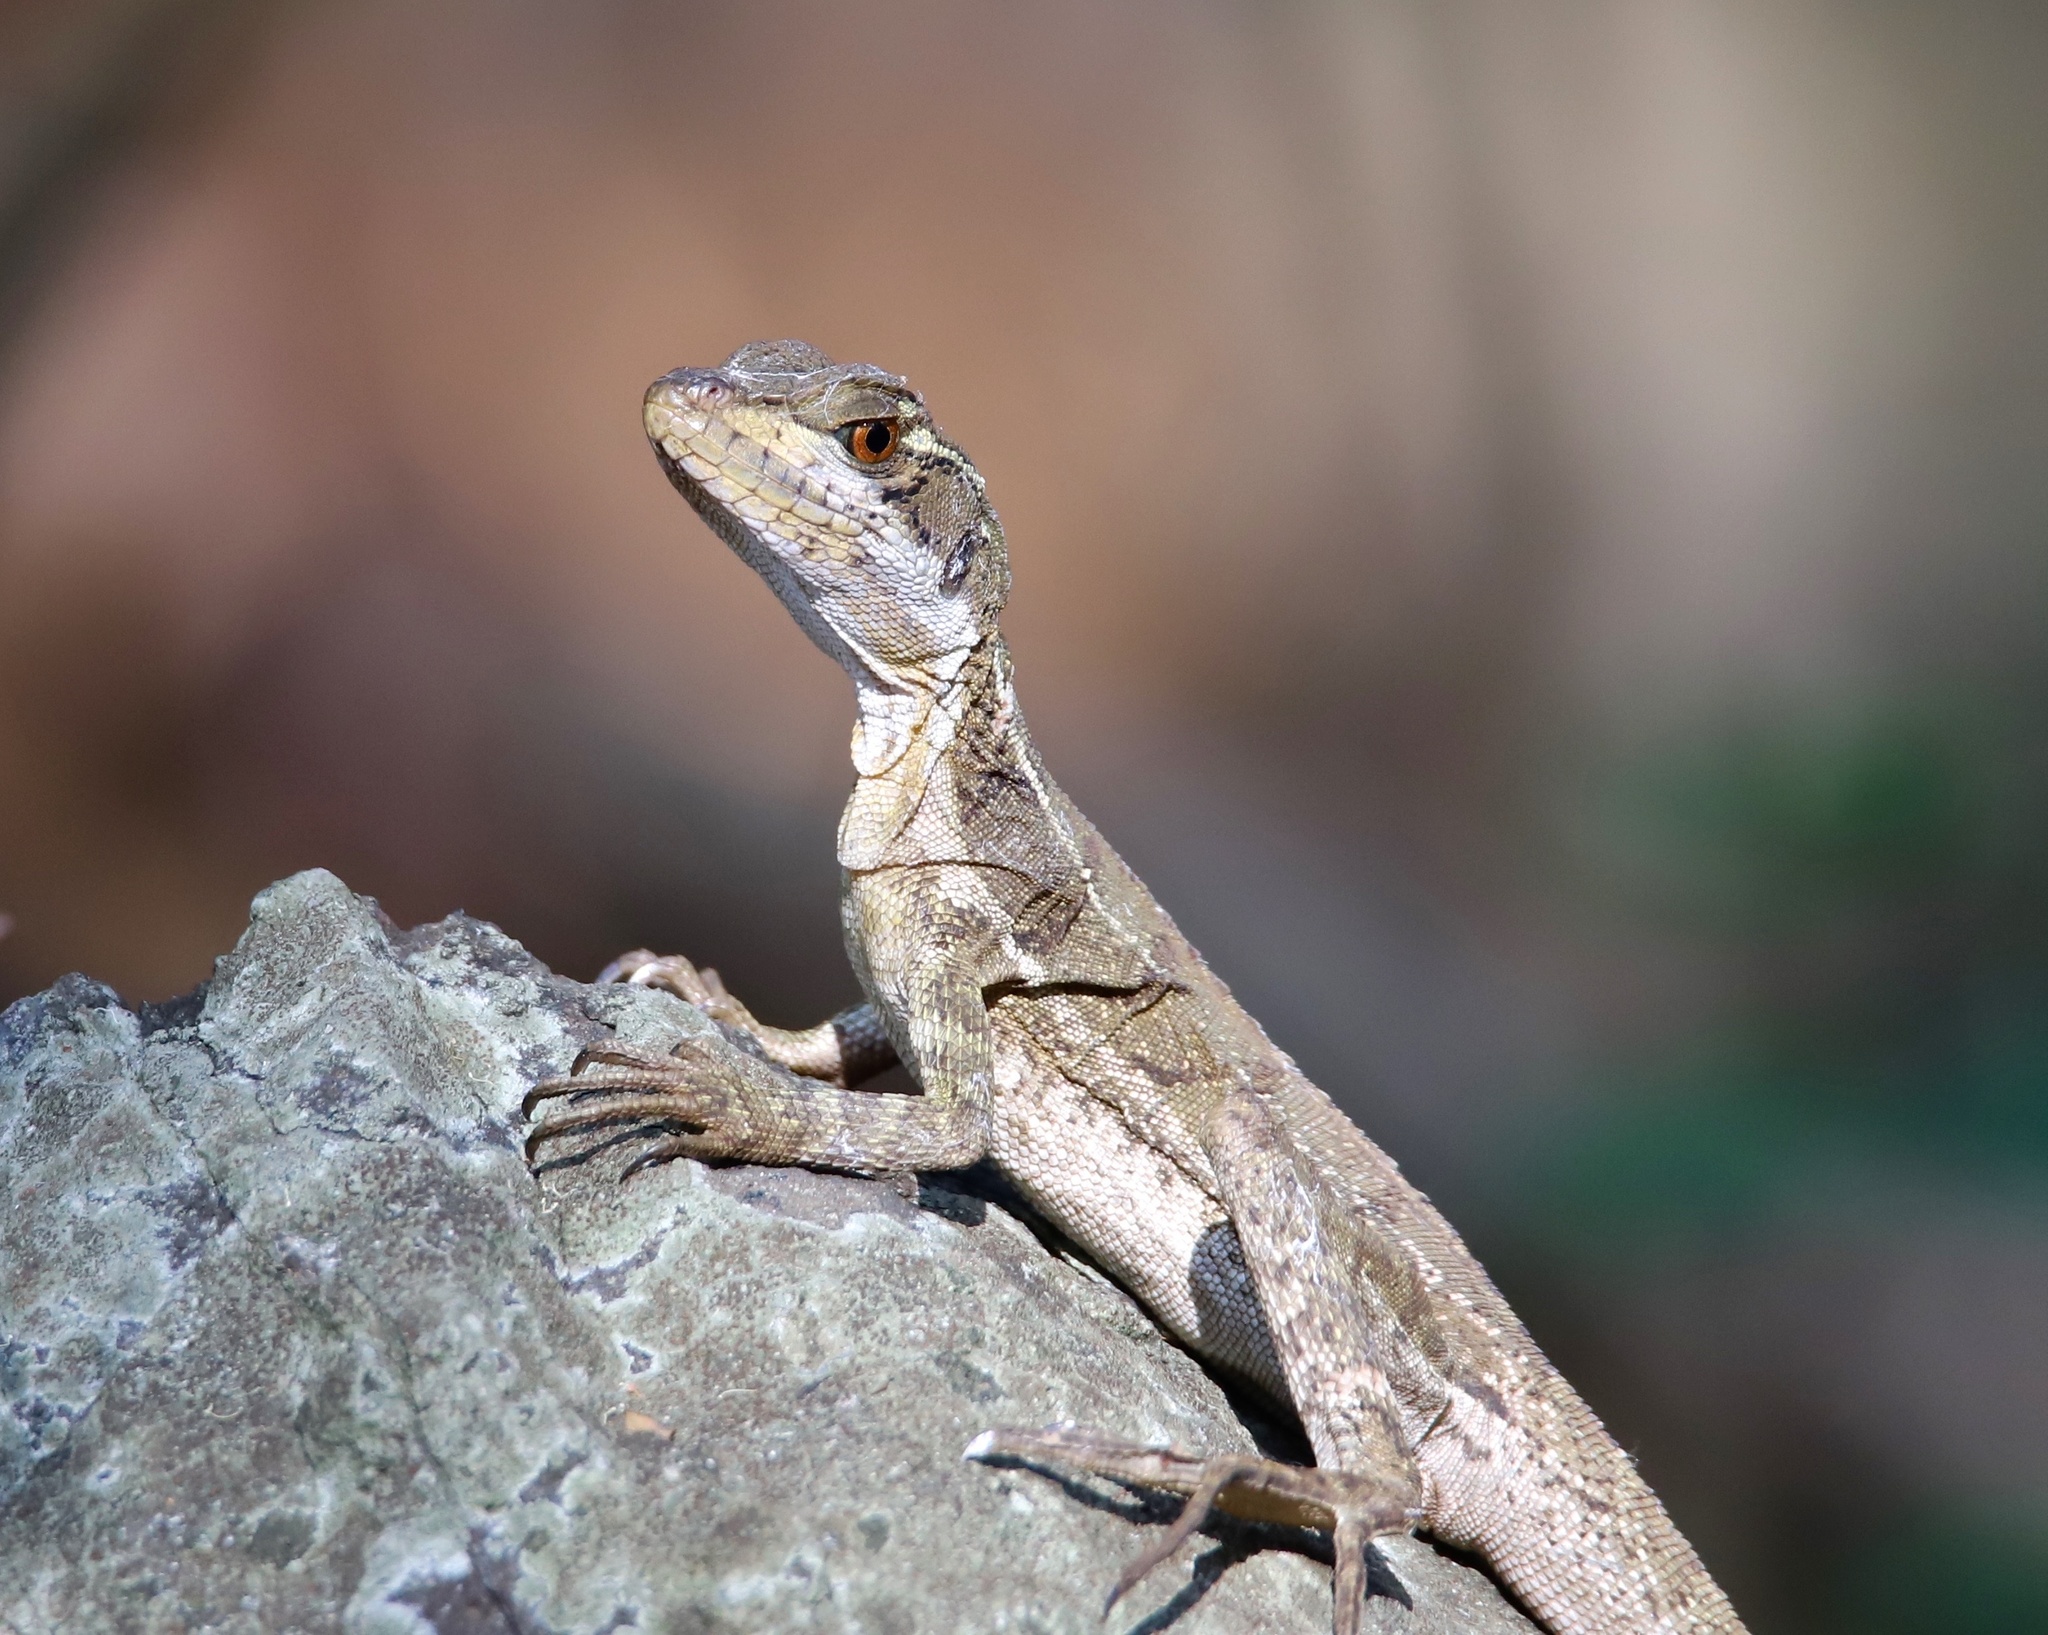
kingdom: Animalia
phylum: Chordata
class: Squamata
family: Corytophanidae
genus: Basiliscus
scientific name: Basiliscus basiliscus
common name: Common basilisk
